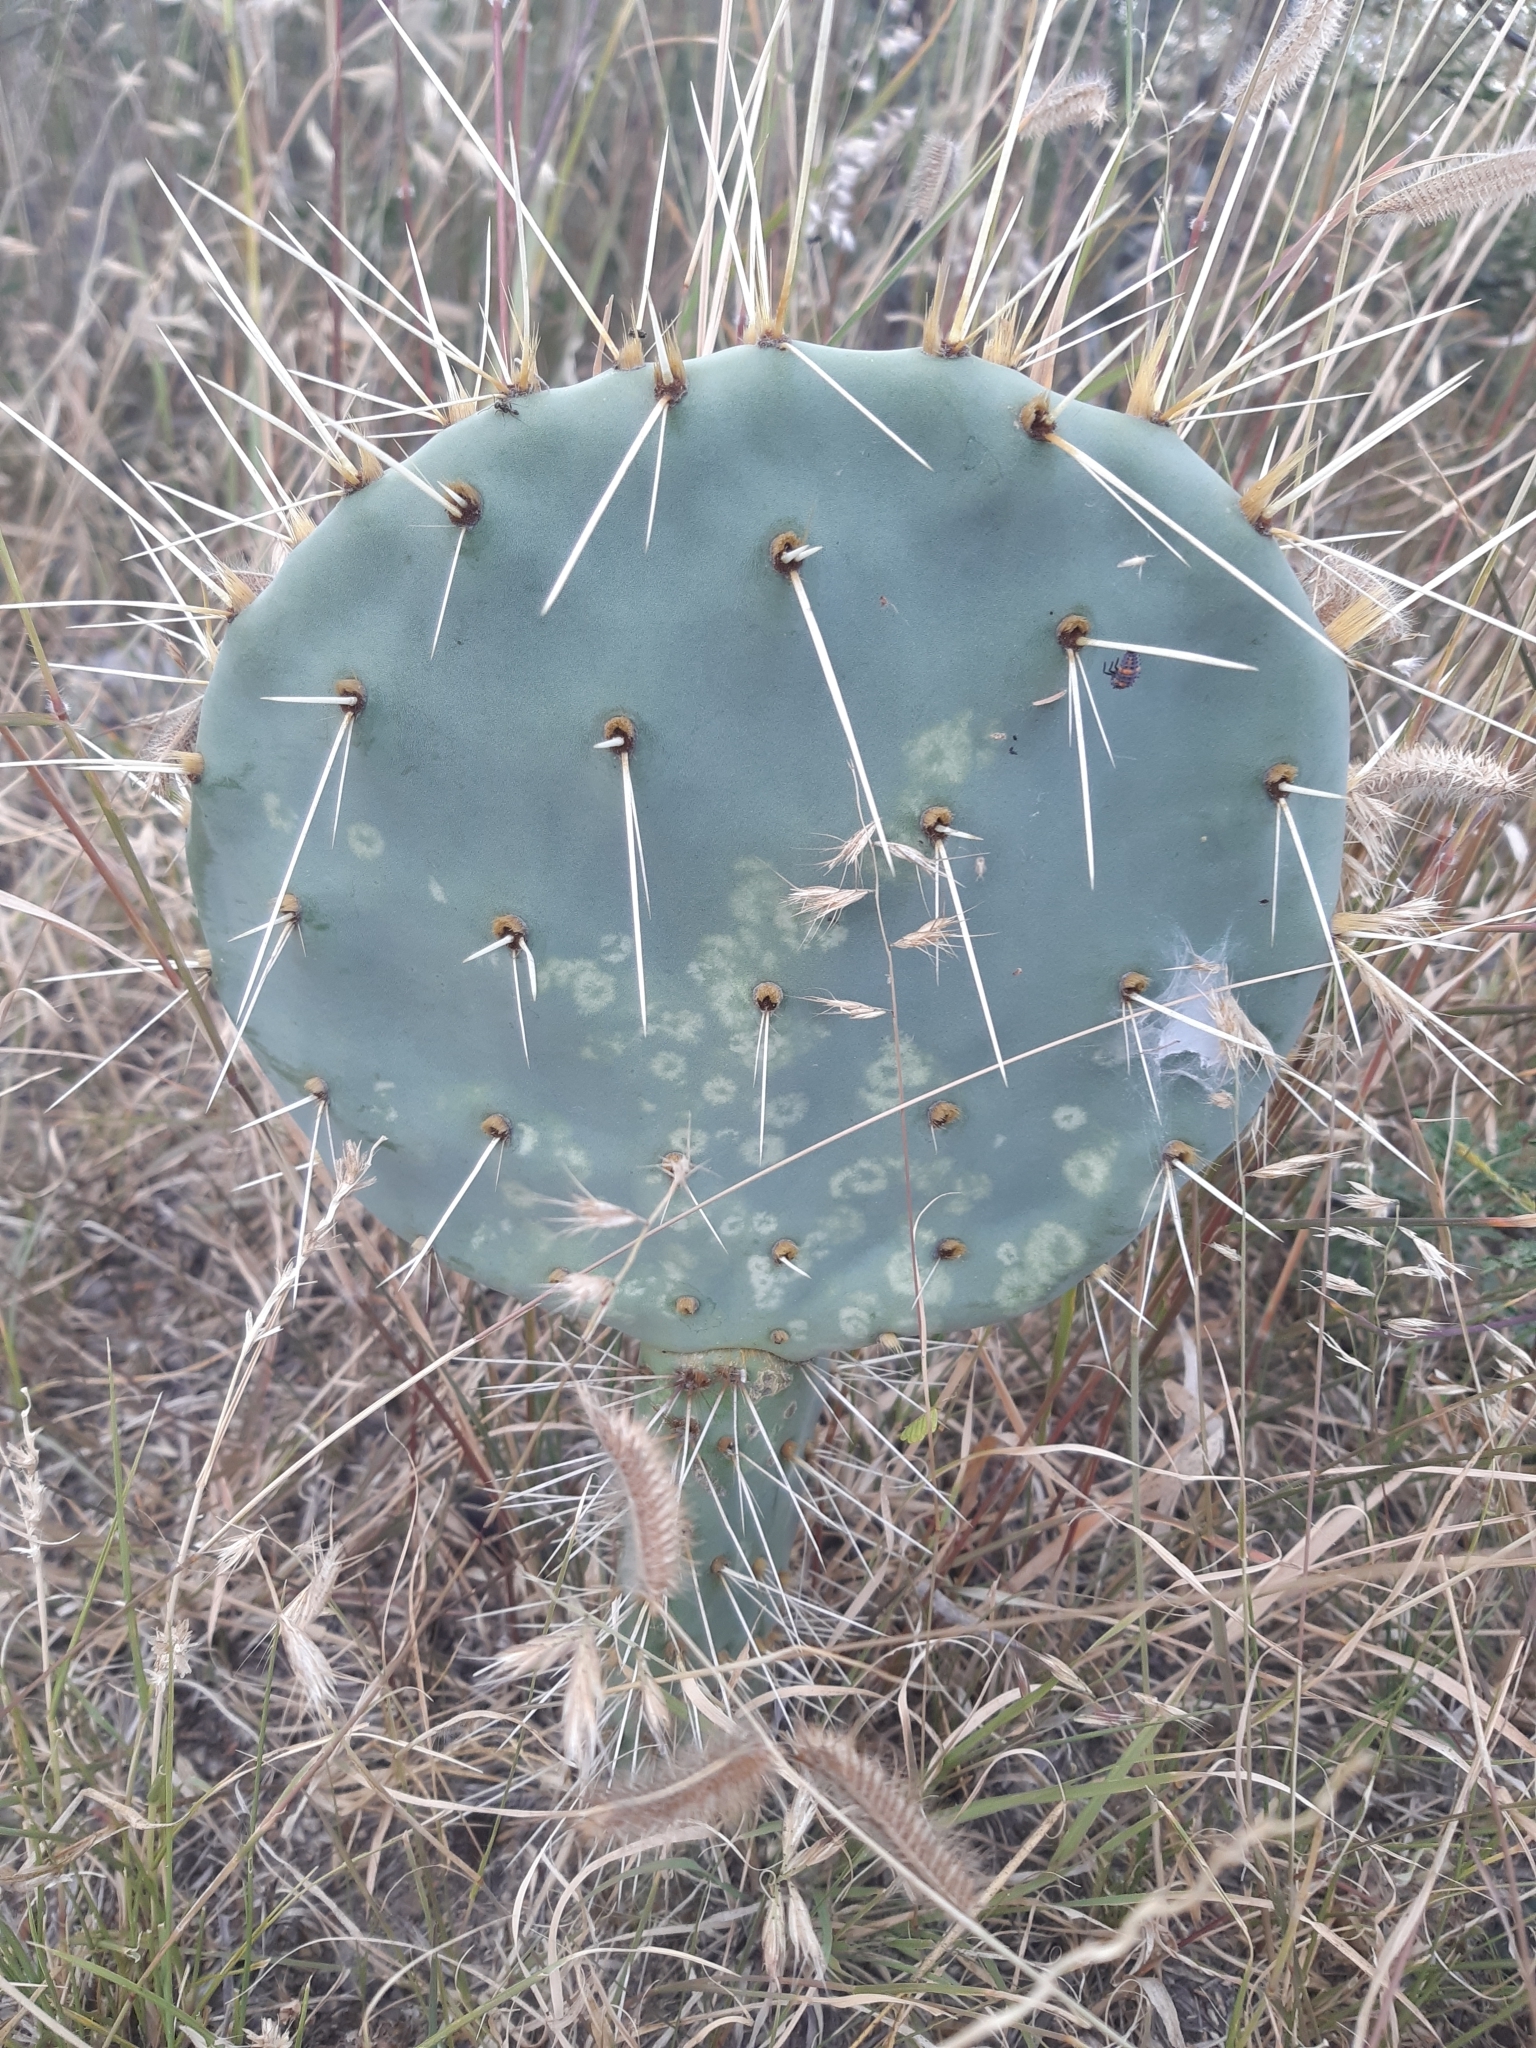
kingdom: Plantae
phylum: Tracheophyta
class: Magnoliopsida
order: Caryophyllales
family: Cactaceae
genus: Opuntia
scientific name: Opuntia robusta
